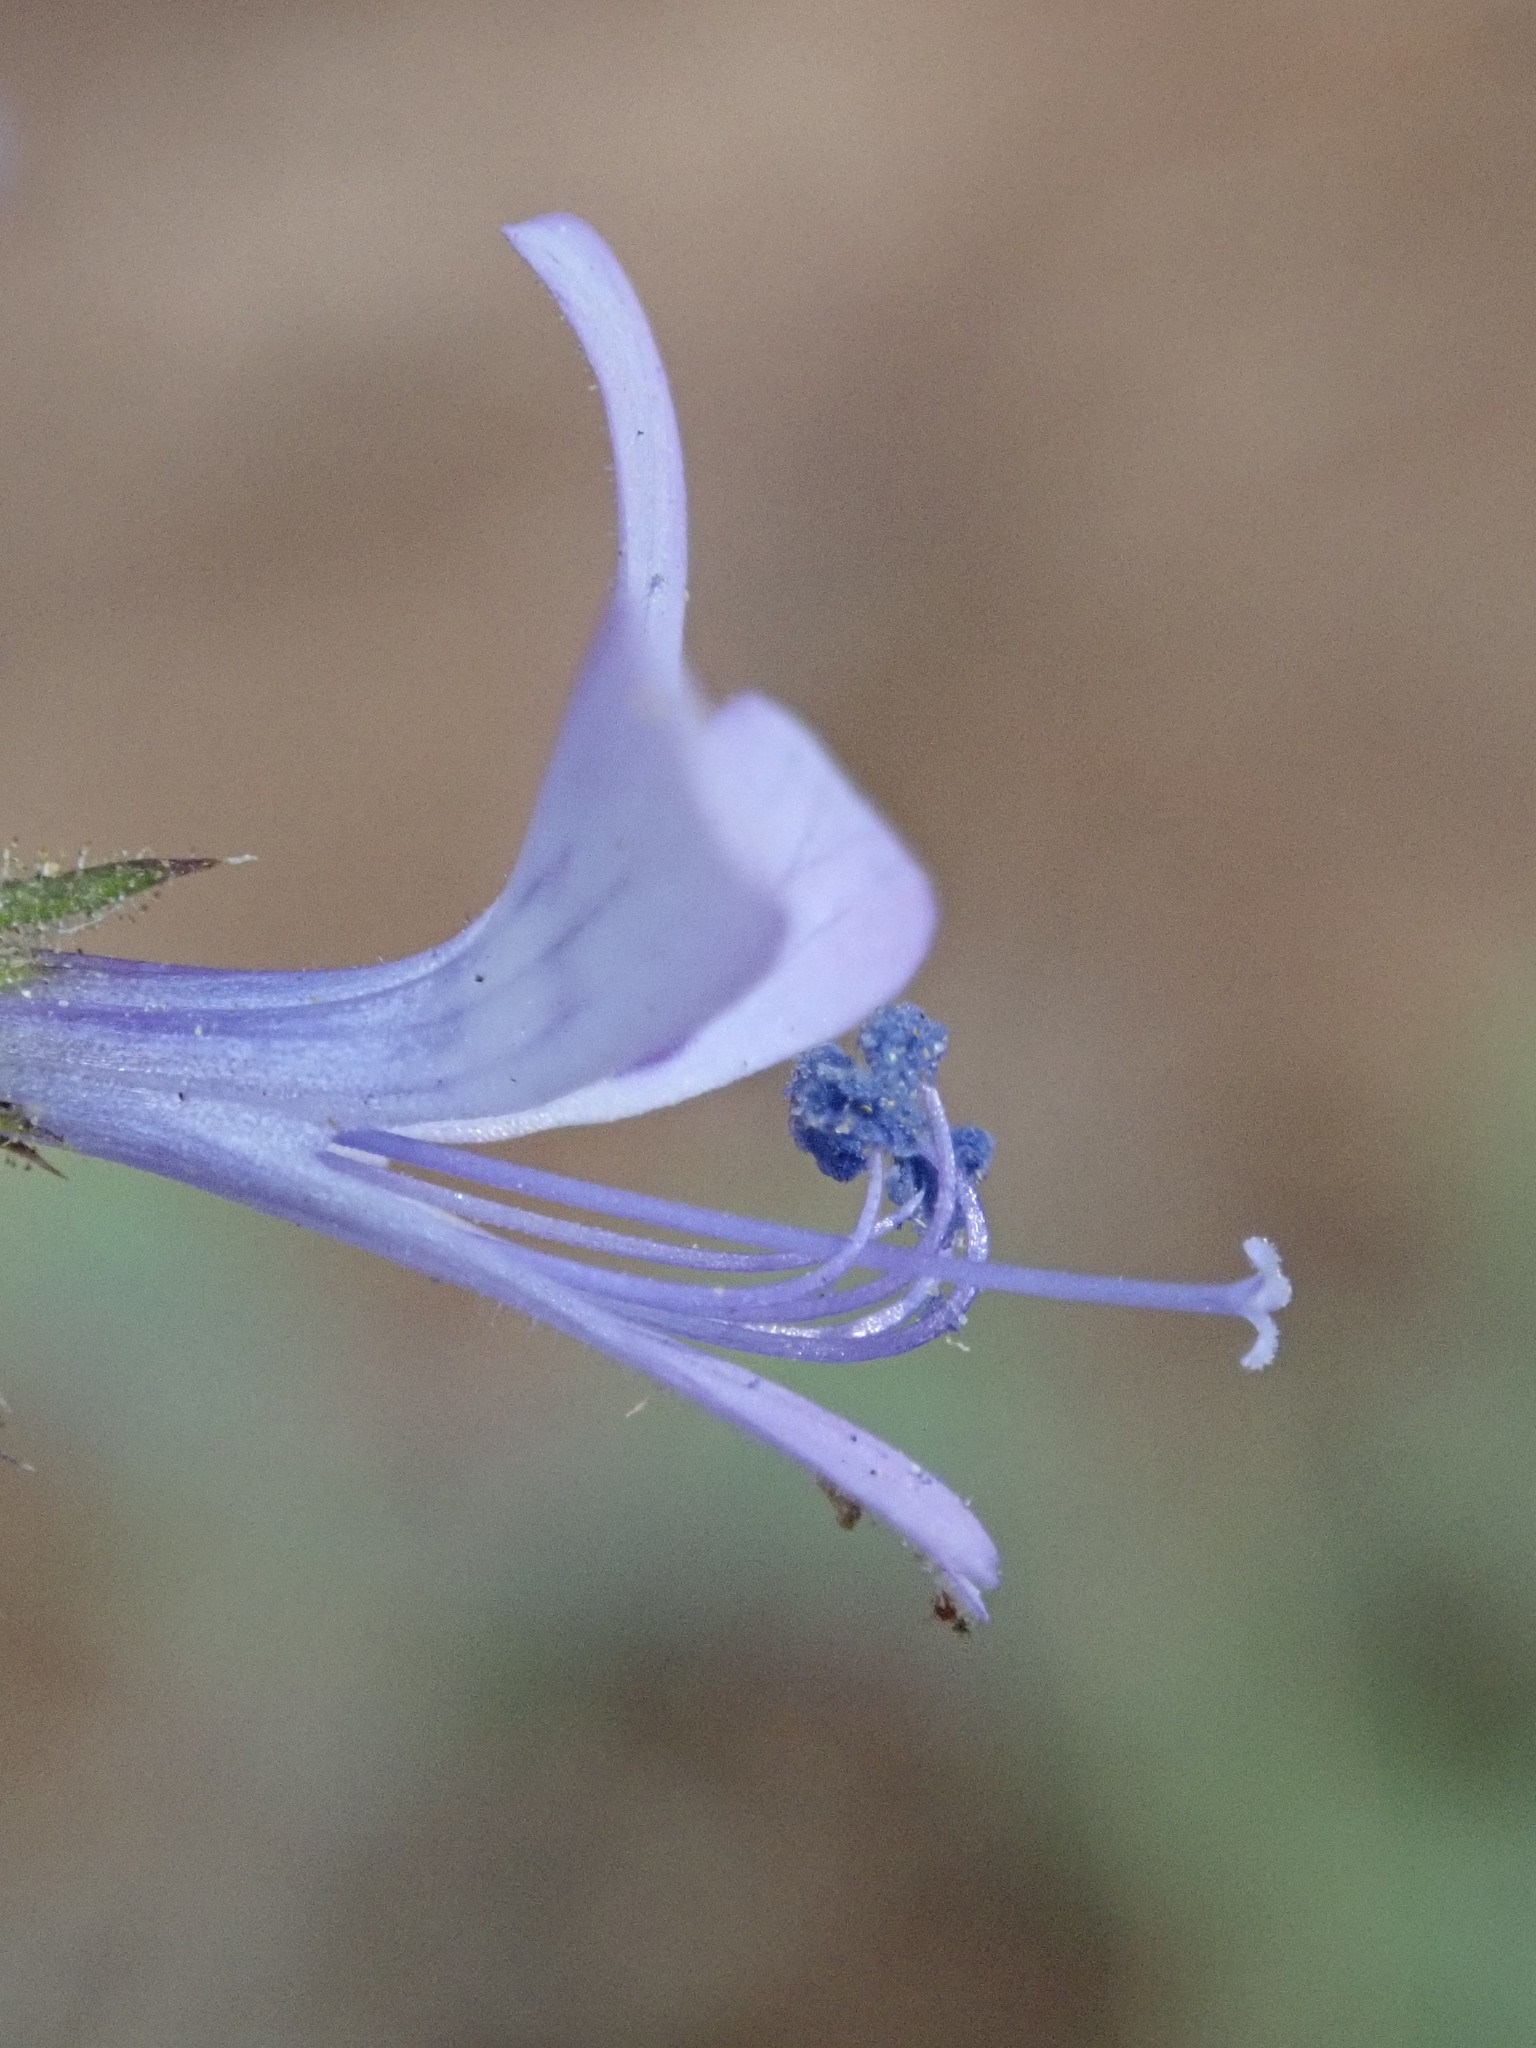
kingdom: Plantae
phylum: Tracheophyta
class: Magnoliopsida
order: Ericales
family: Polemoniaceae
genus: Loeselia
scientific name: Loeselia rupestris
